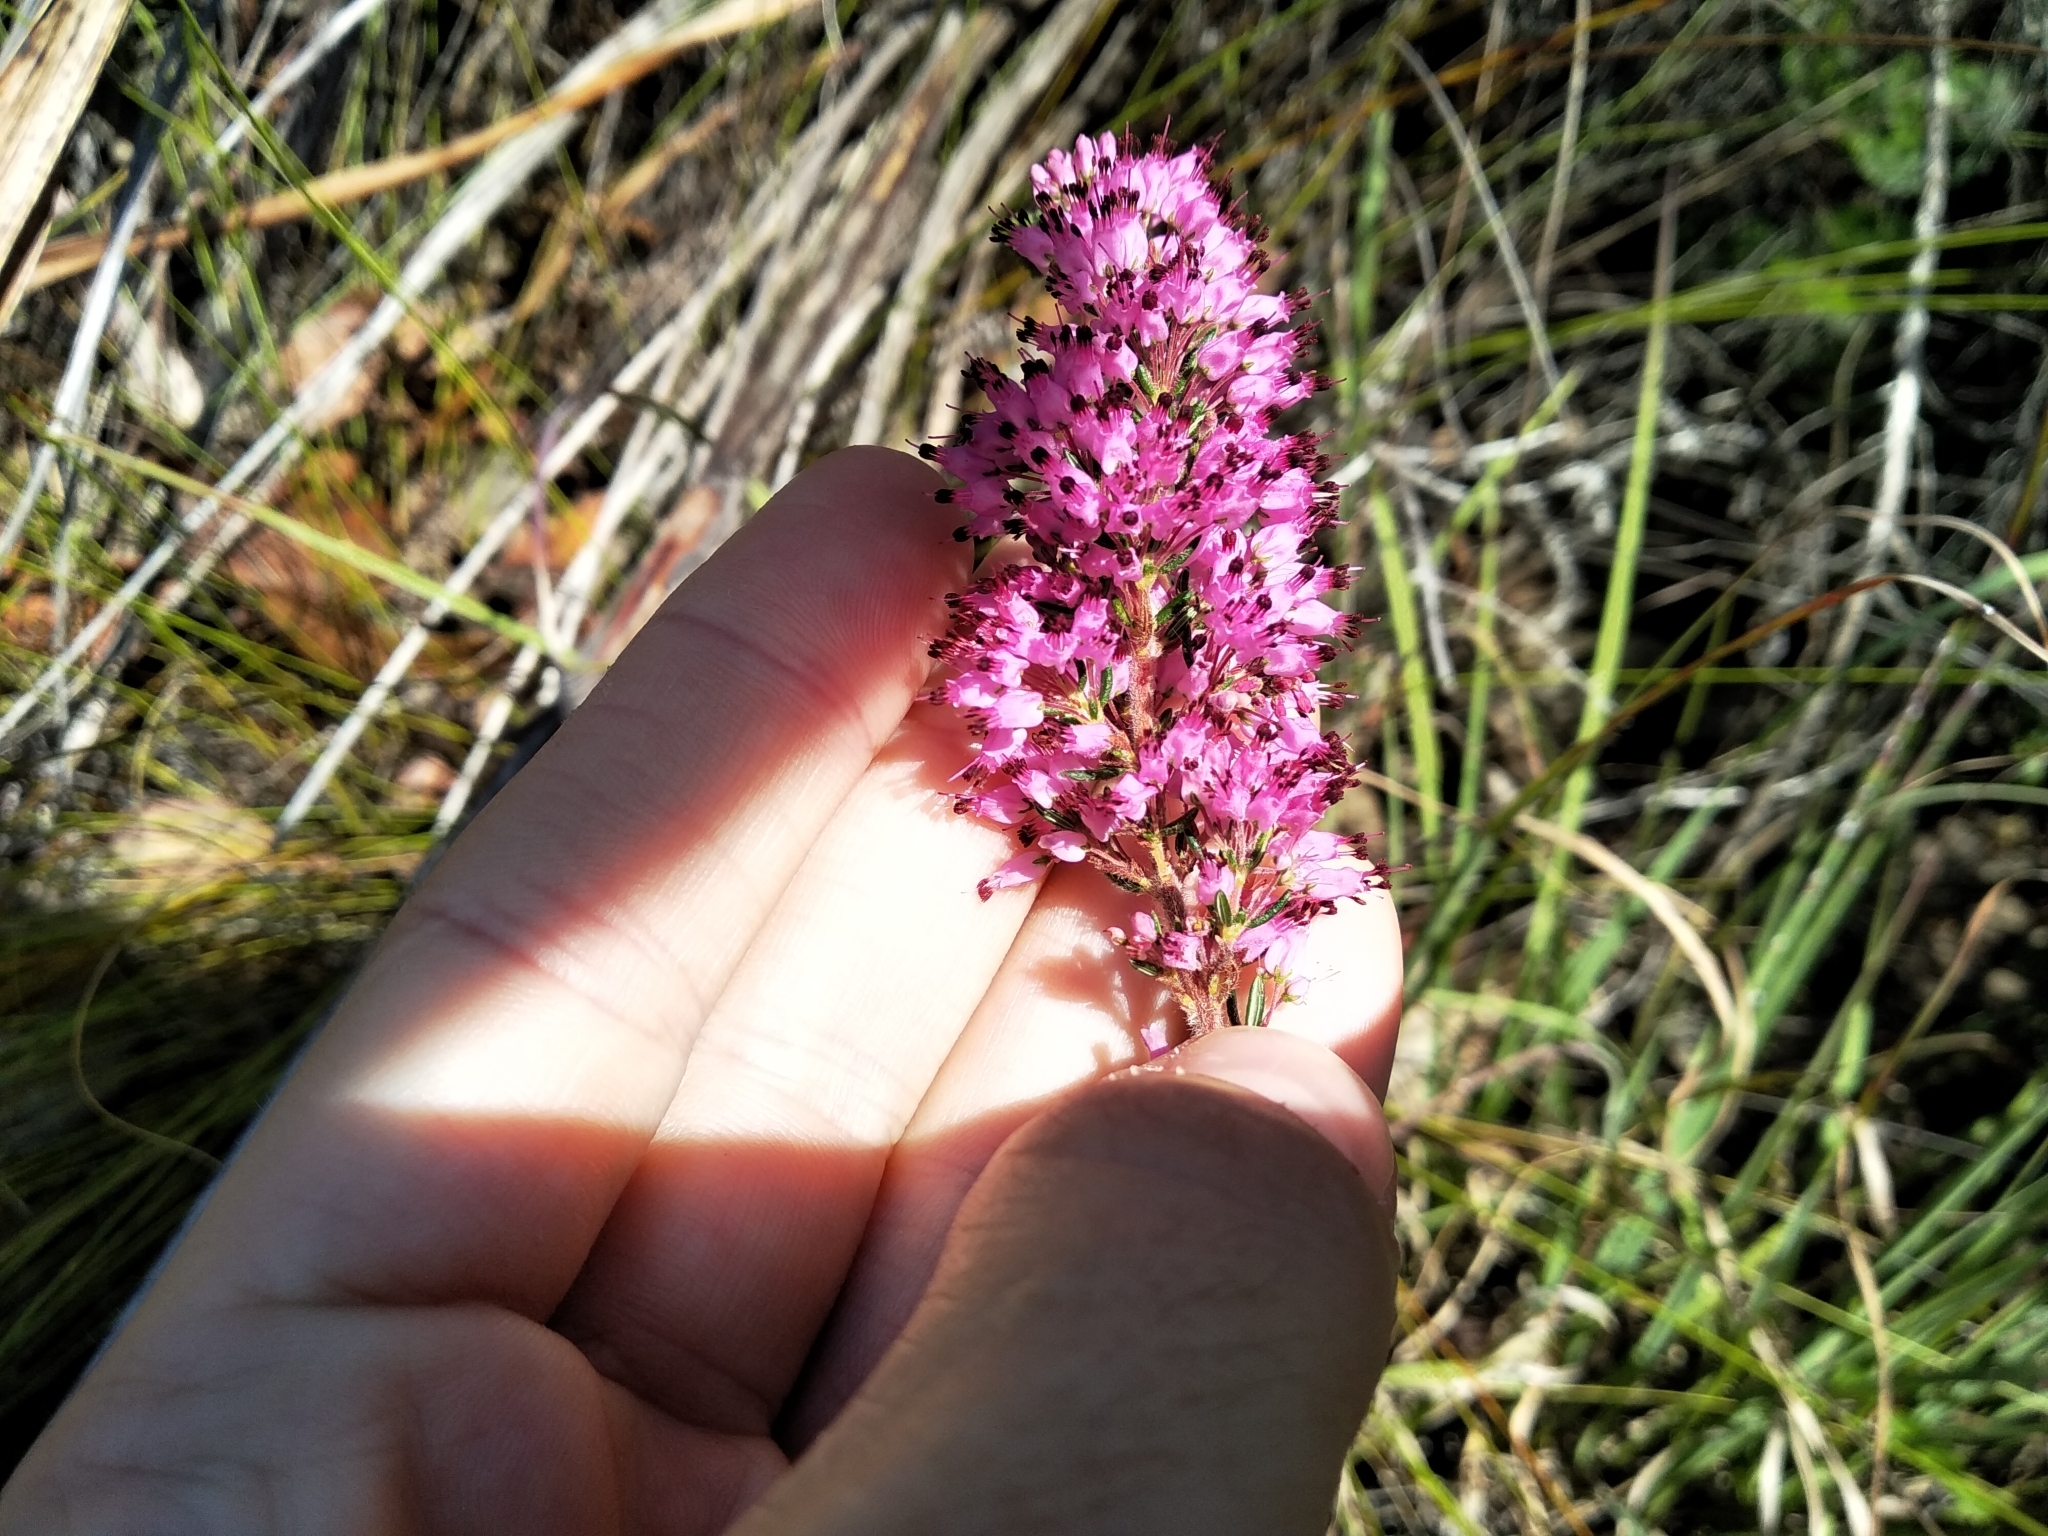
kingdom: Plantae
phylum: Tracheophyta
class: Magnoliopsida
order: Ericales
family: Ericaceae
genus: Erica
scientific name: Erica nudiflora
